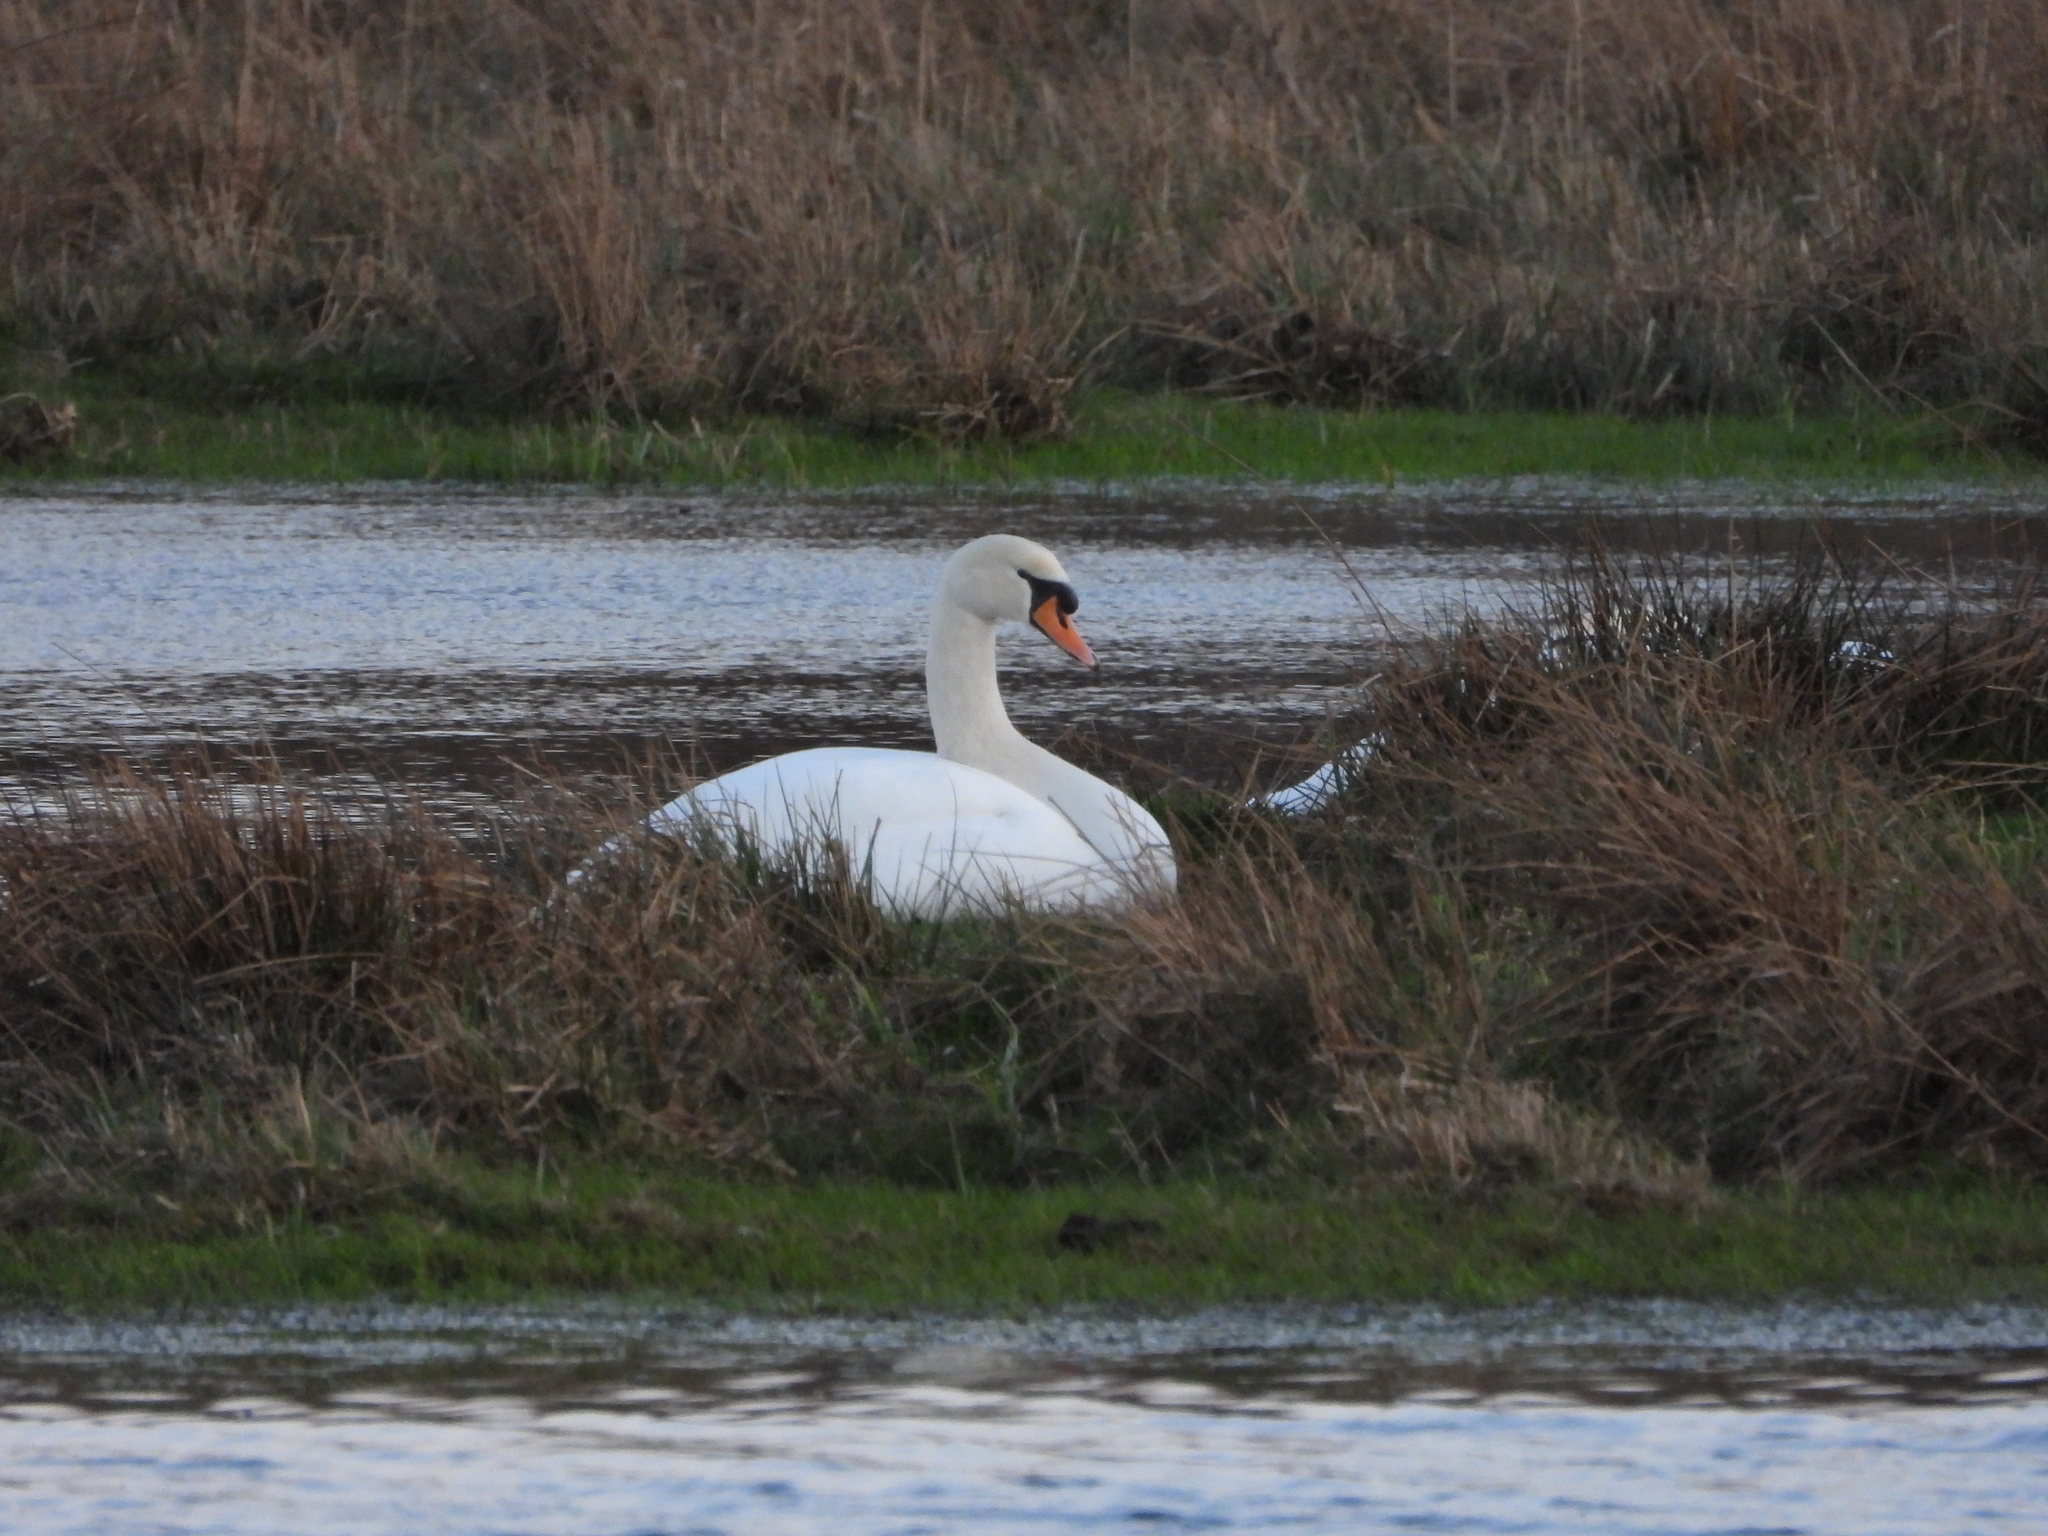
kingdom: Animalia
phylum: Chordata
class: Aves
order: Anseriformes
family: Anatidae
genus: Cygnus
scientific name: Cygnus olor
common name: Mute swan
